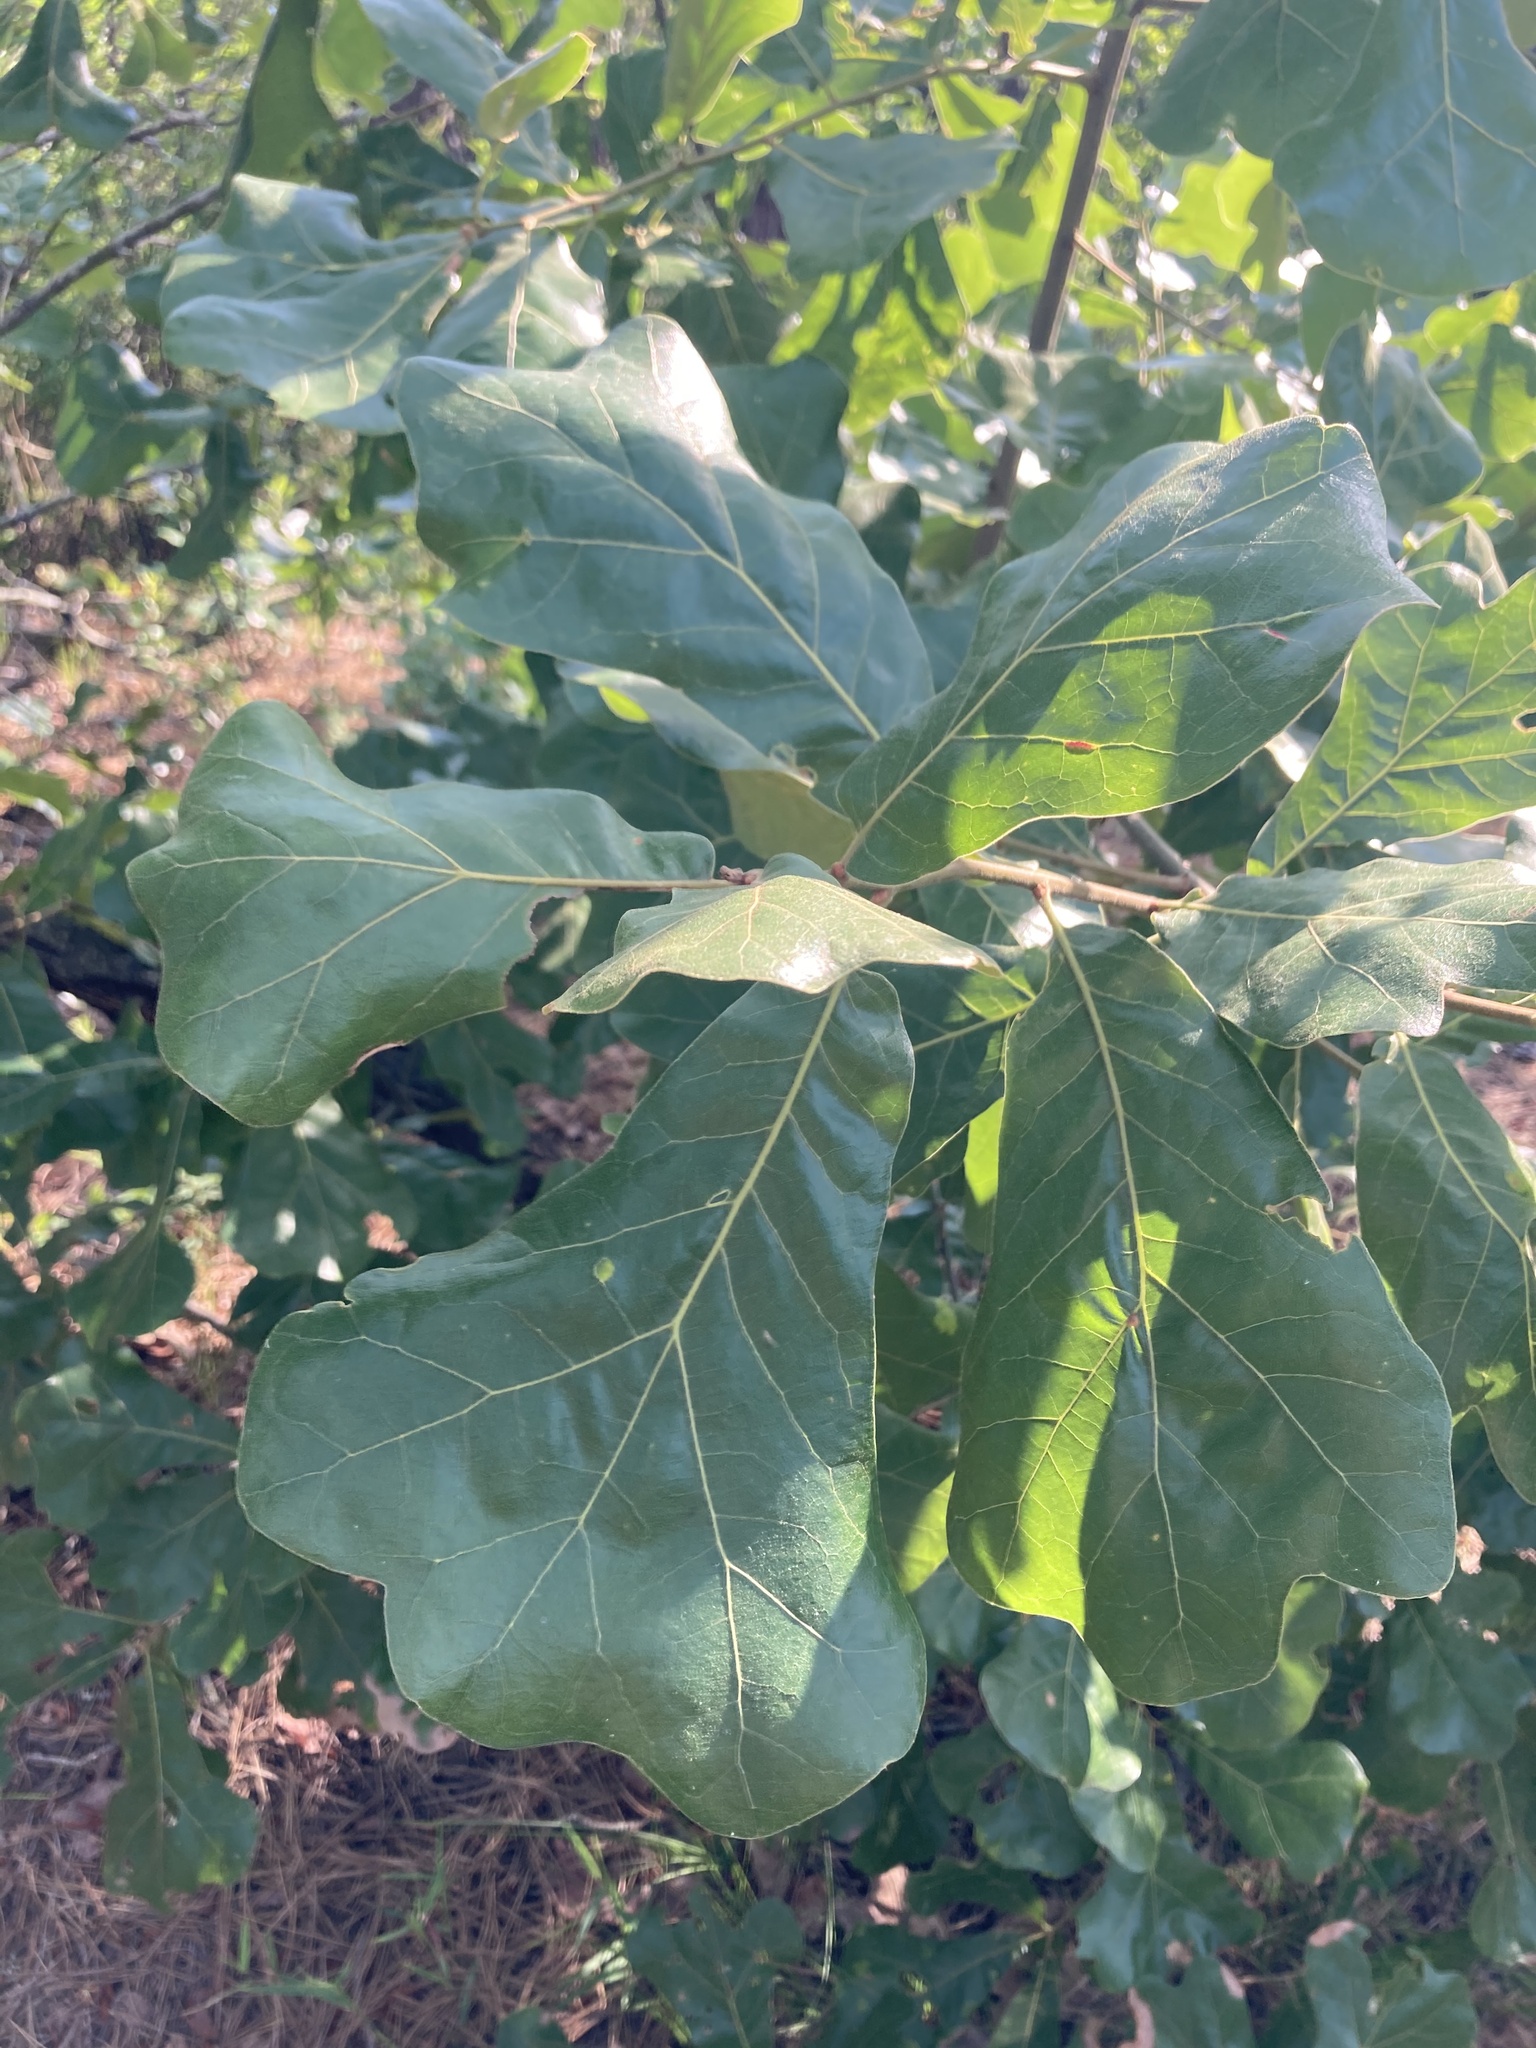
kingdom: Plantae
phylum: Tracheophyta
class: Magnoliopsida
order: Fagales
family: Fagaceae
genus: Quercus
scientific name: Quercus marilandica
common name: Blackjack oak
